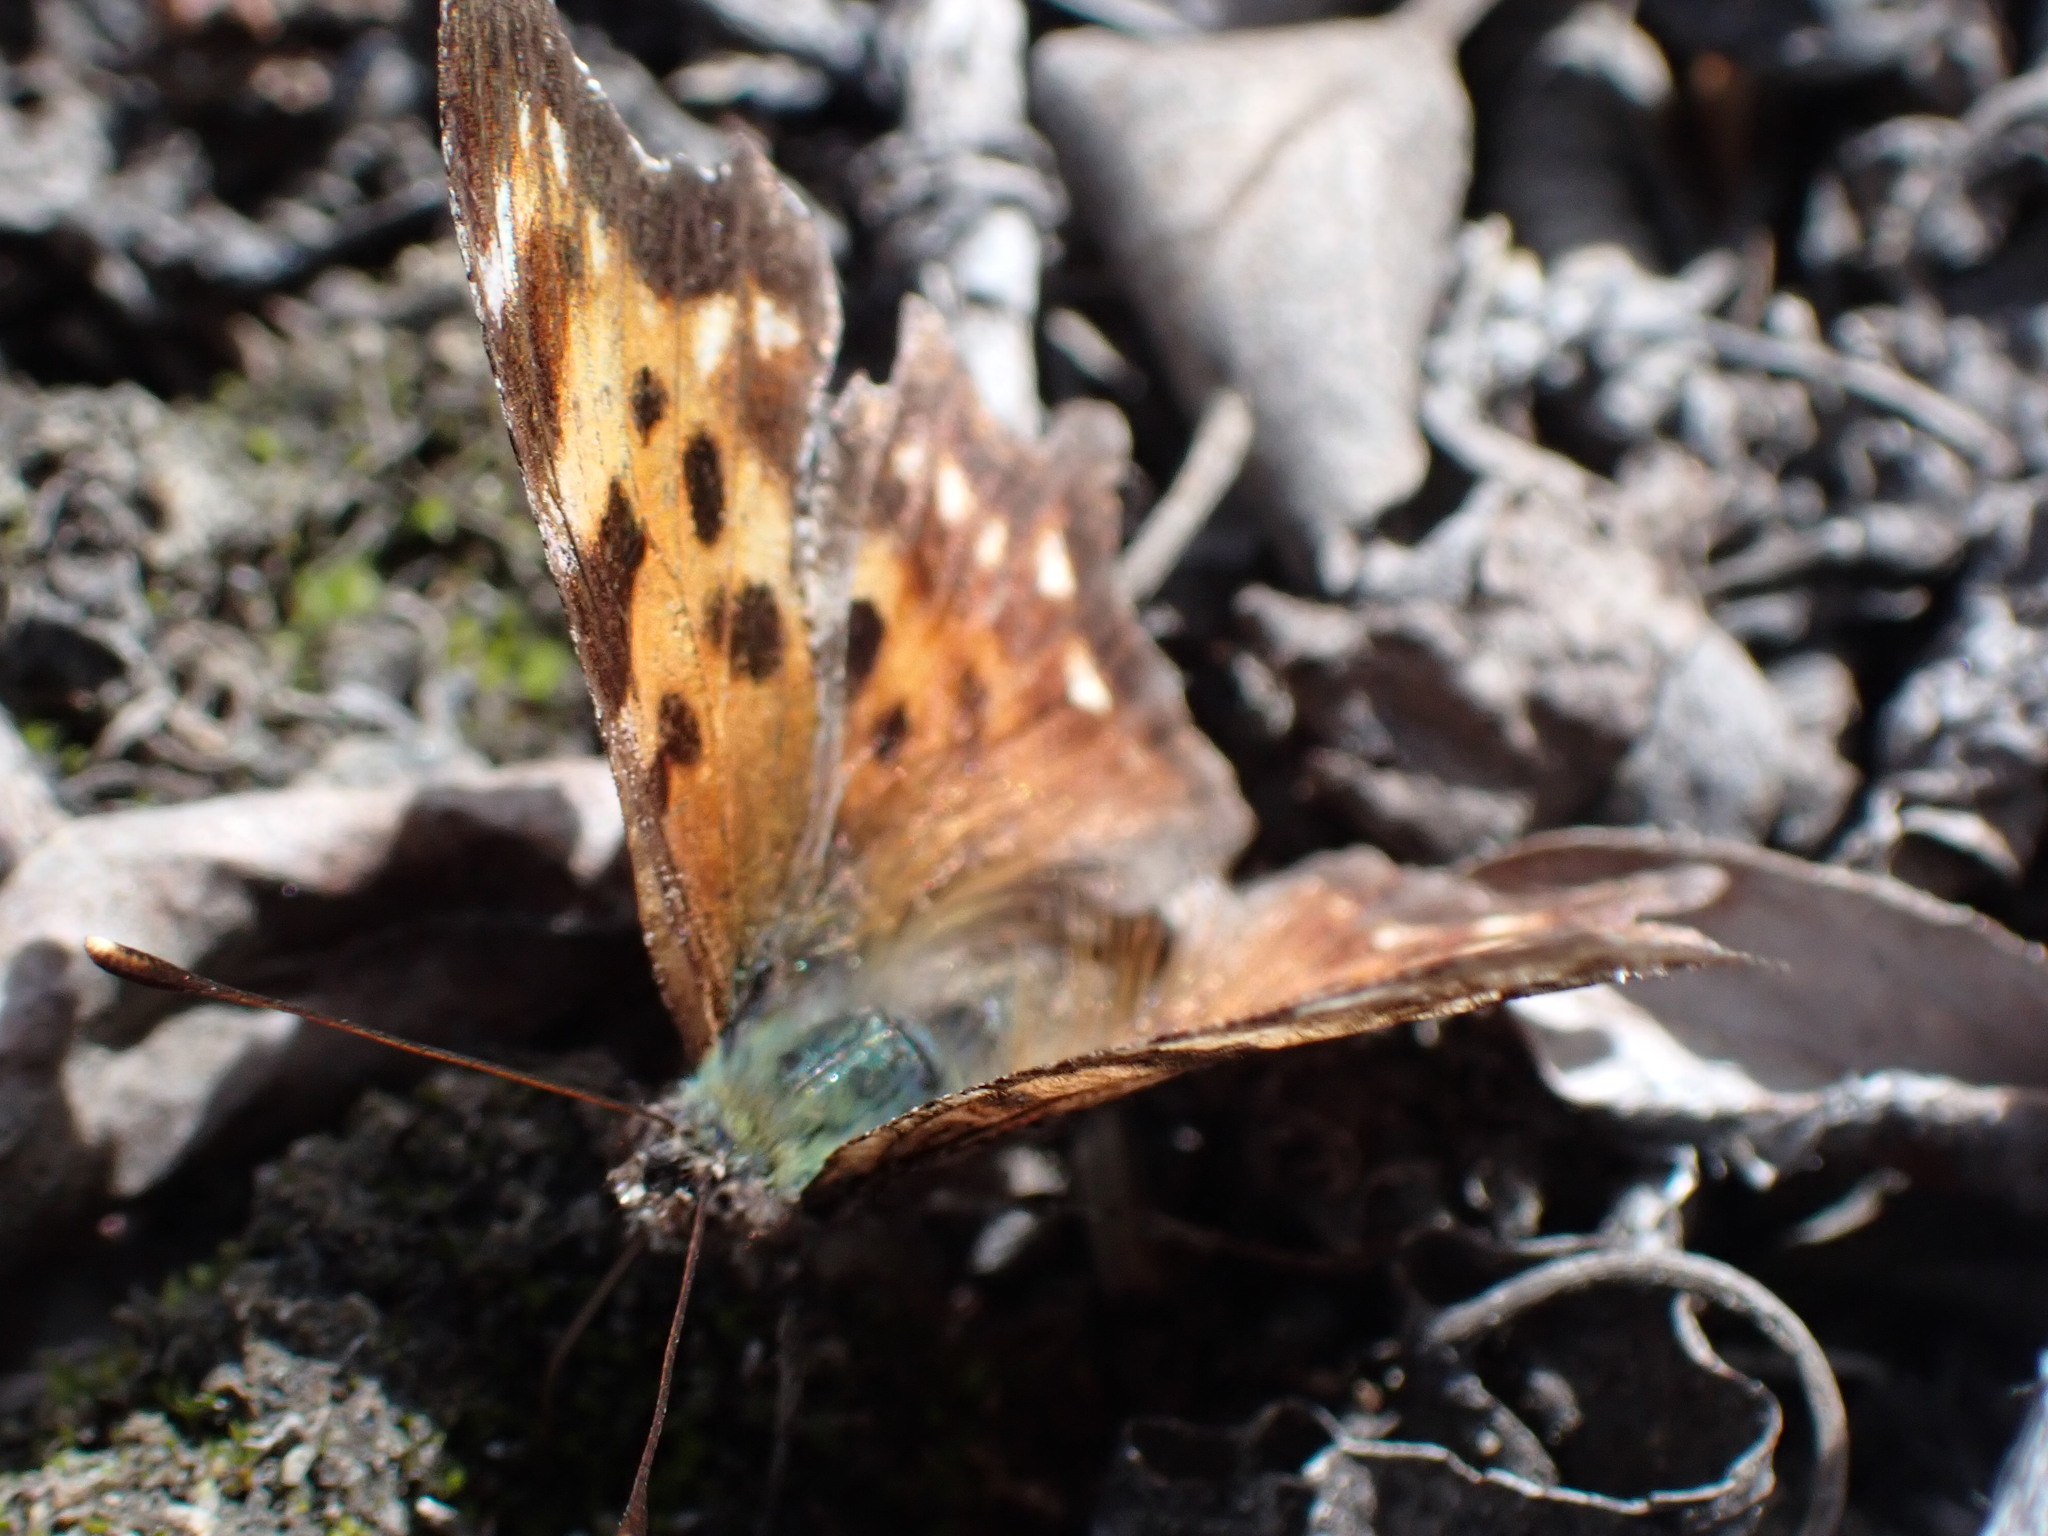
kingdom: Animalia
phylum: Arthropoda
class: Insecta
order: Lepidoptera
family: Nymphalidae
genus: Polygonia
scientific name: Polygonia faunus
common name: Green comma
